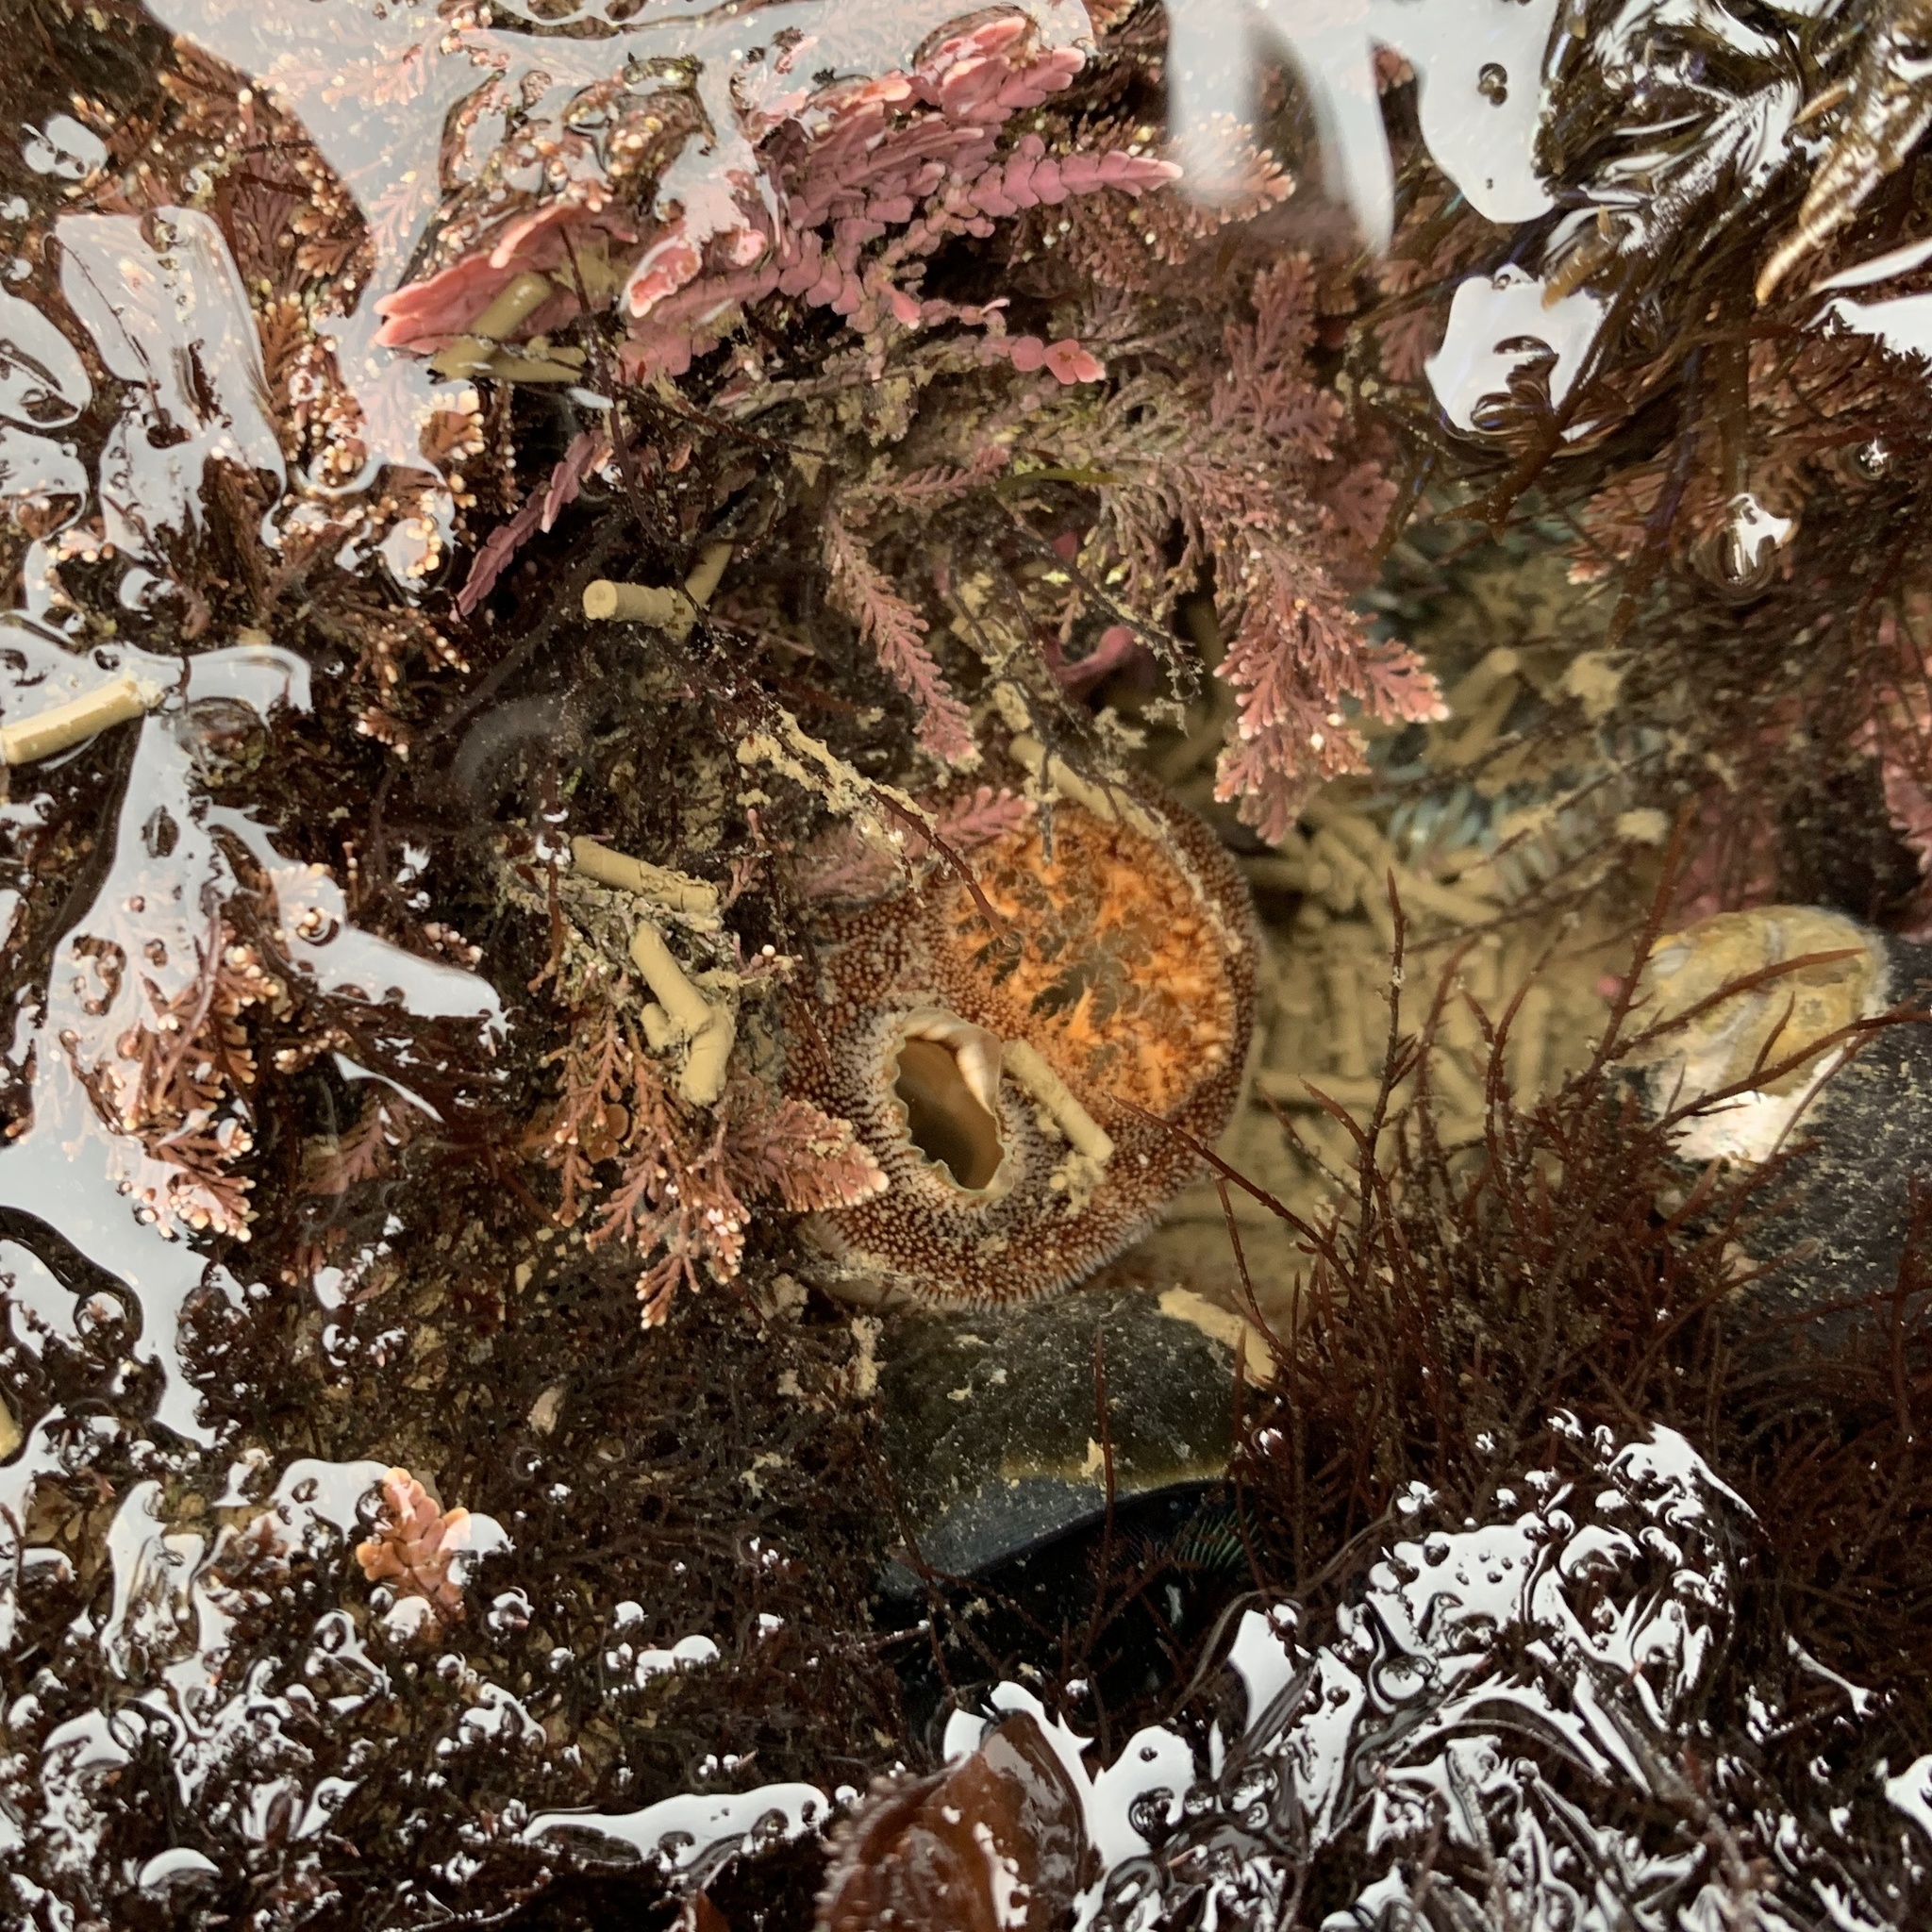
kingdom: Animalia
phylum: Mollusca
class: Bivalvia
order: Myida
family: Pholadidae
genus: Parapholas
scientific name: Parapholas californica
